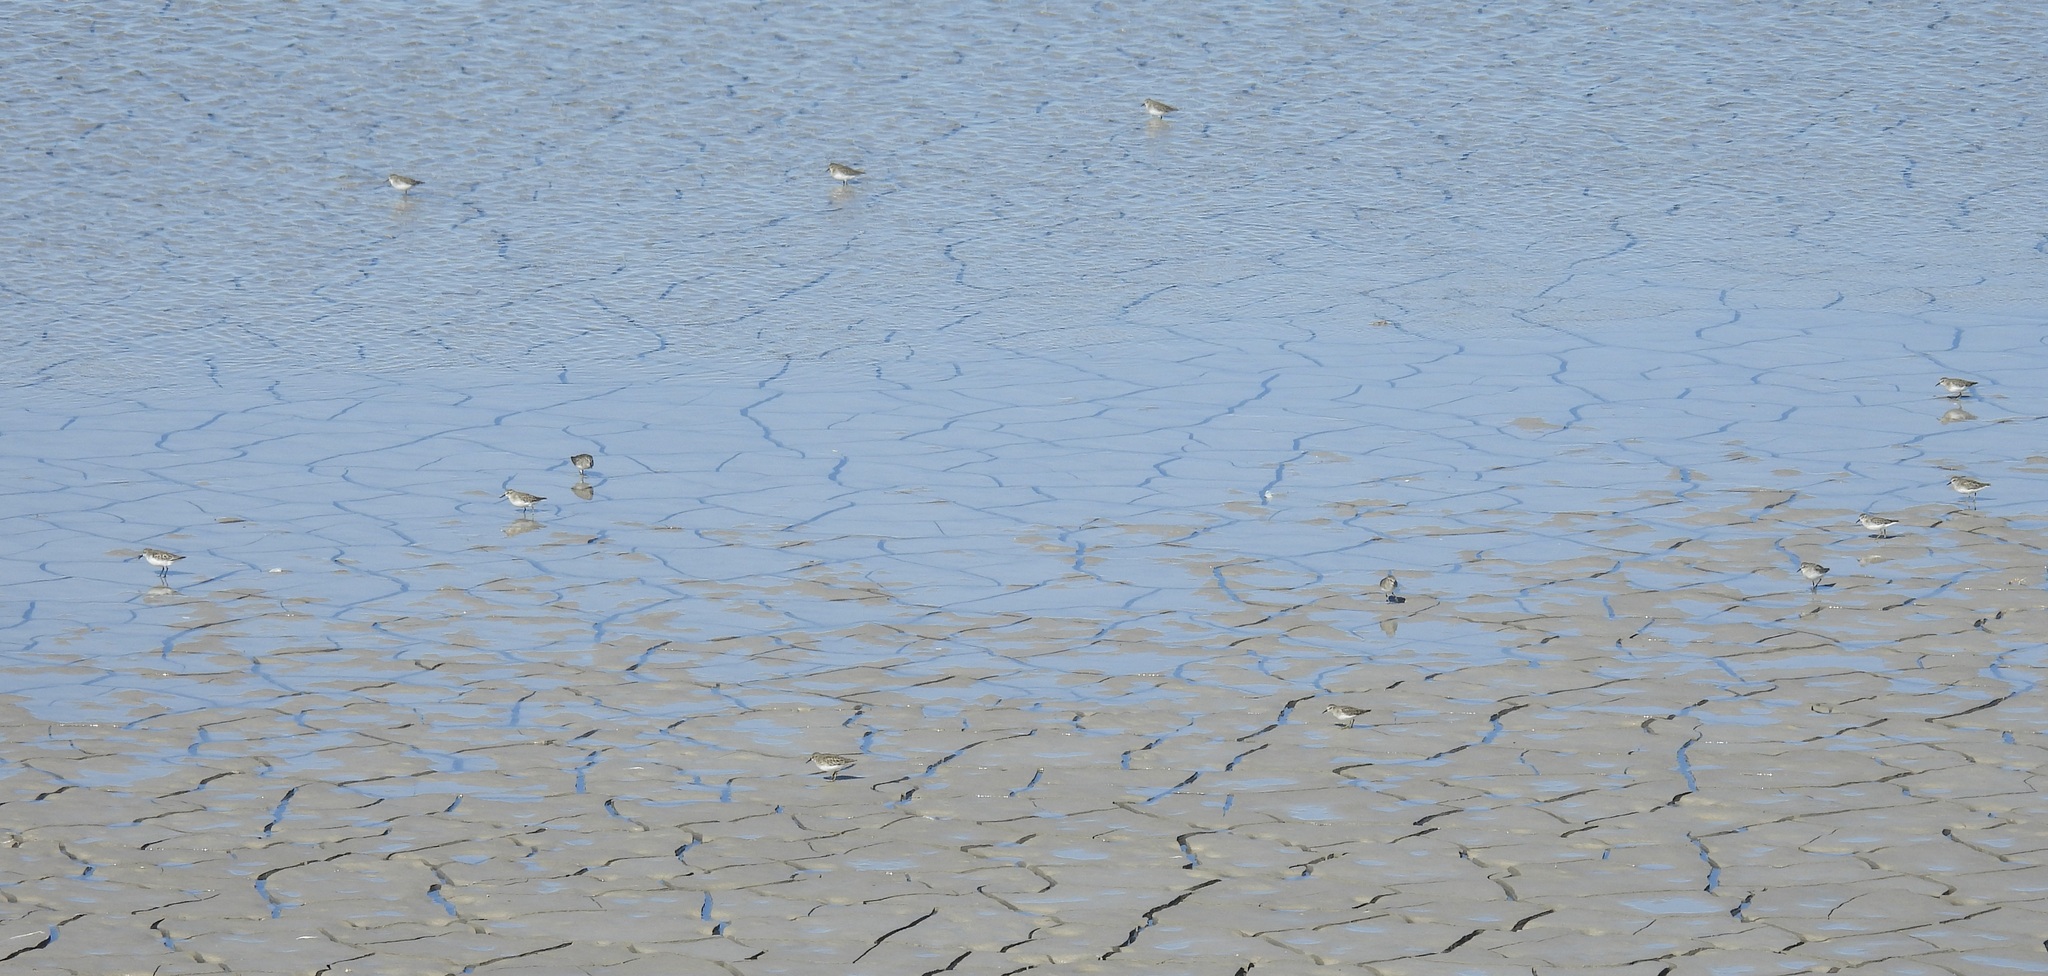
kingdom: Animalia
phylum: Chordata
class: Aves
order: Charadriiformes
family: Scolopacidae
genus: Calidris
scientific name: Calidris minutilla
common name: Least sandpiper
